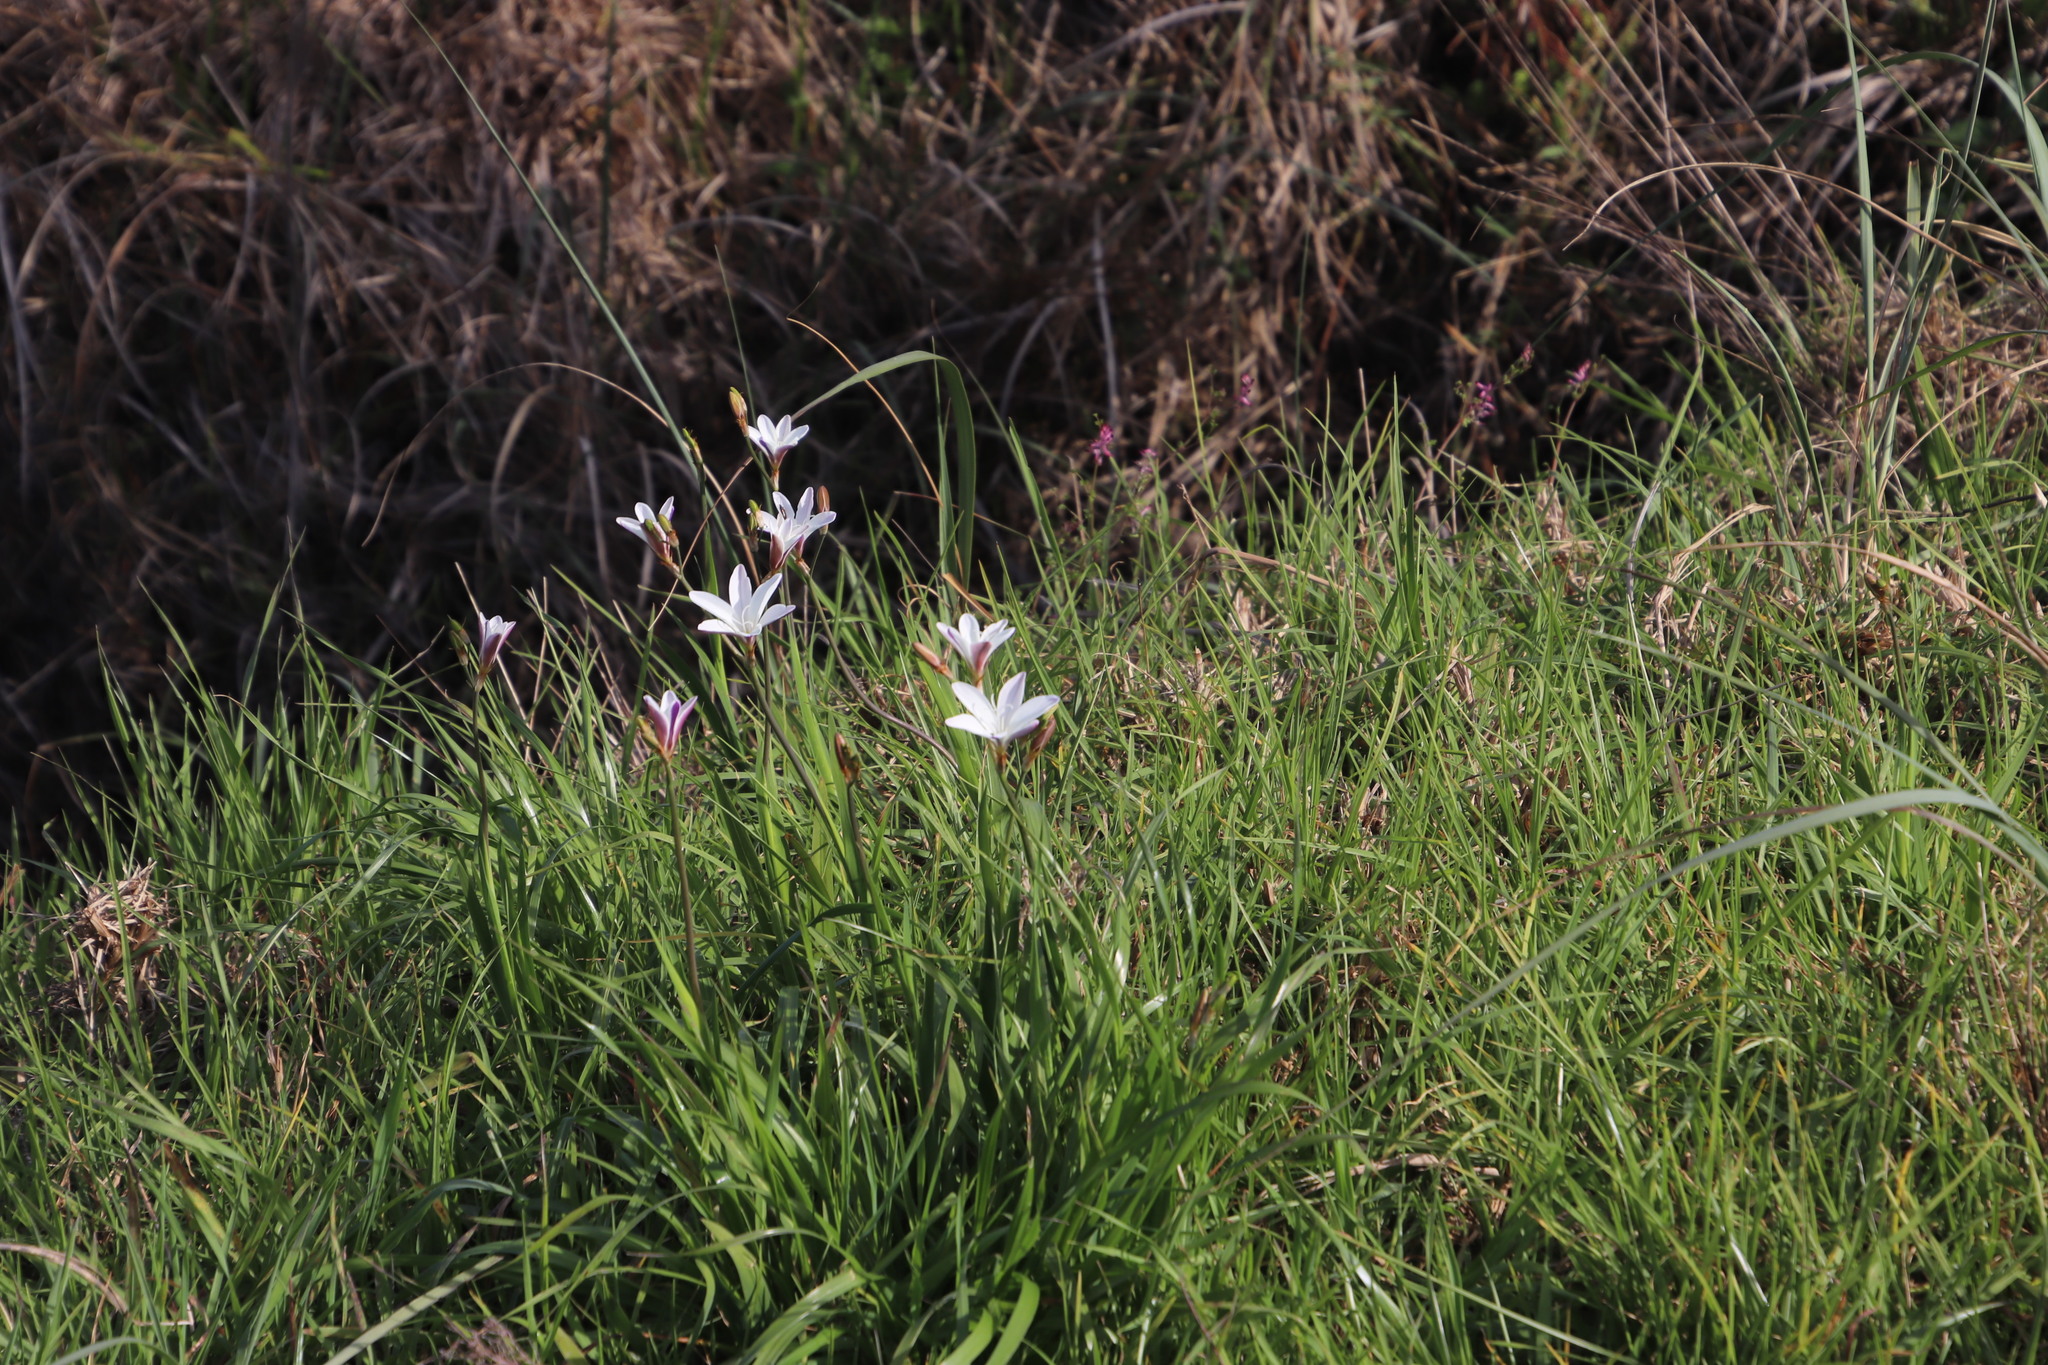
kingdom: Plantae
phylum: Tracheophyta
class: Liliopsida
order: Asparagales
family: Iridaceae
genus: Sparaxis
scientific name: Sparaxis bulbifera
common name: Harlequin-flower
